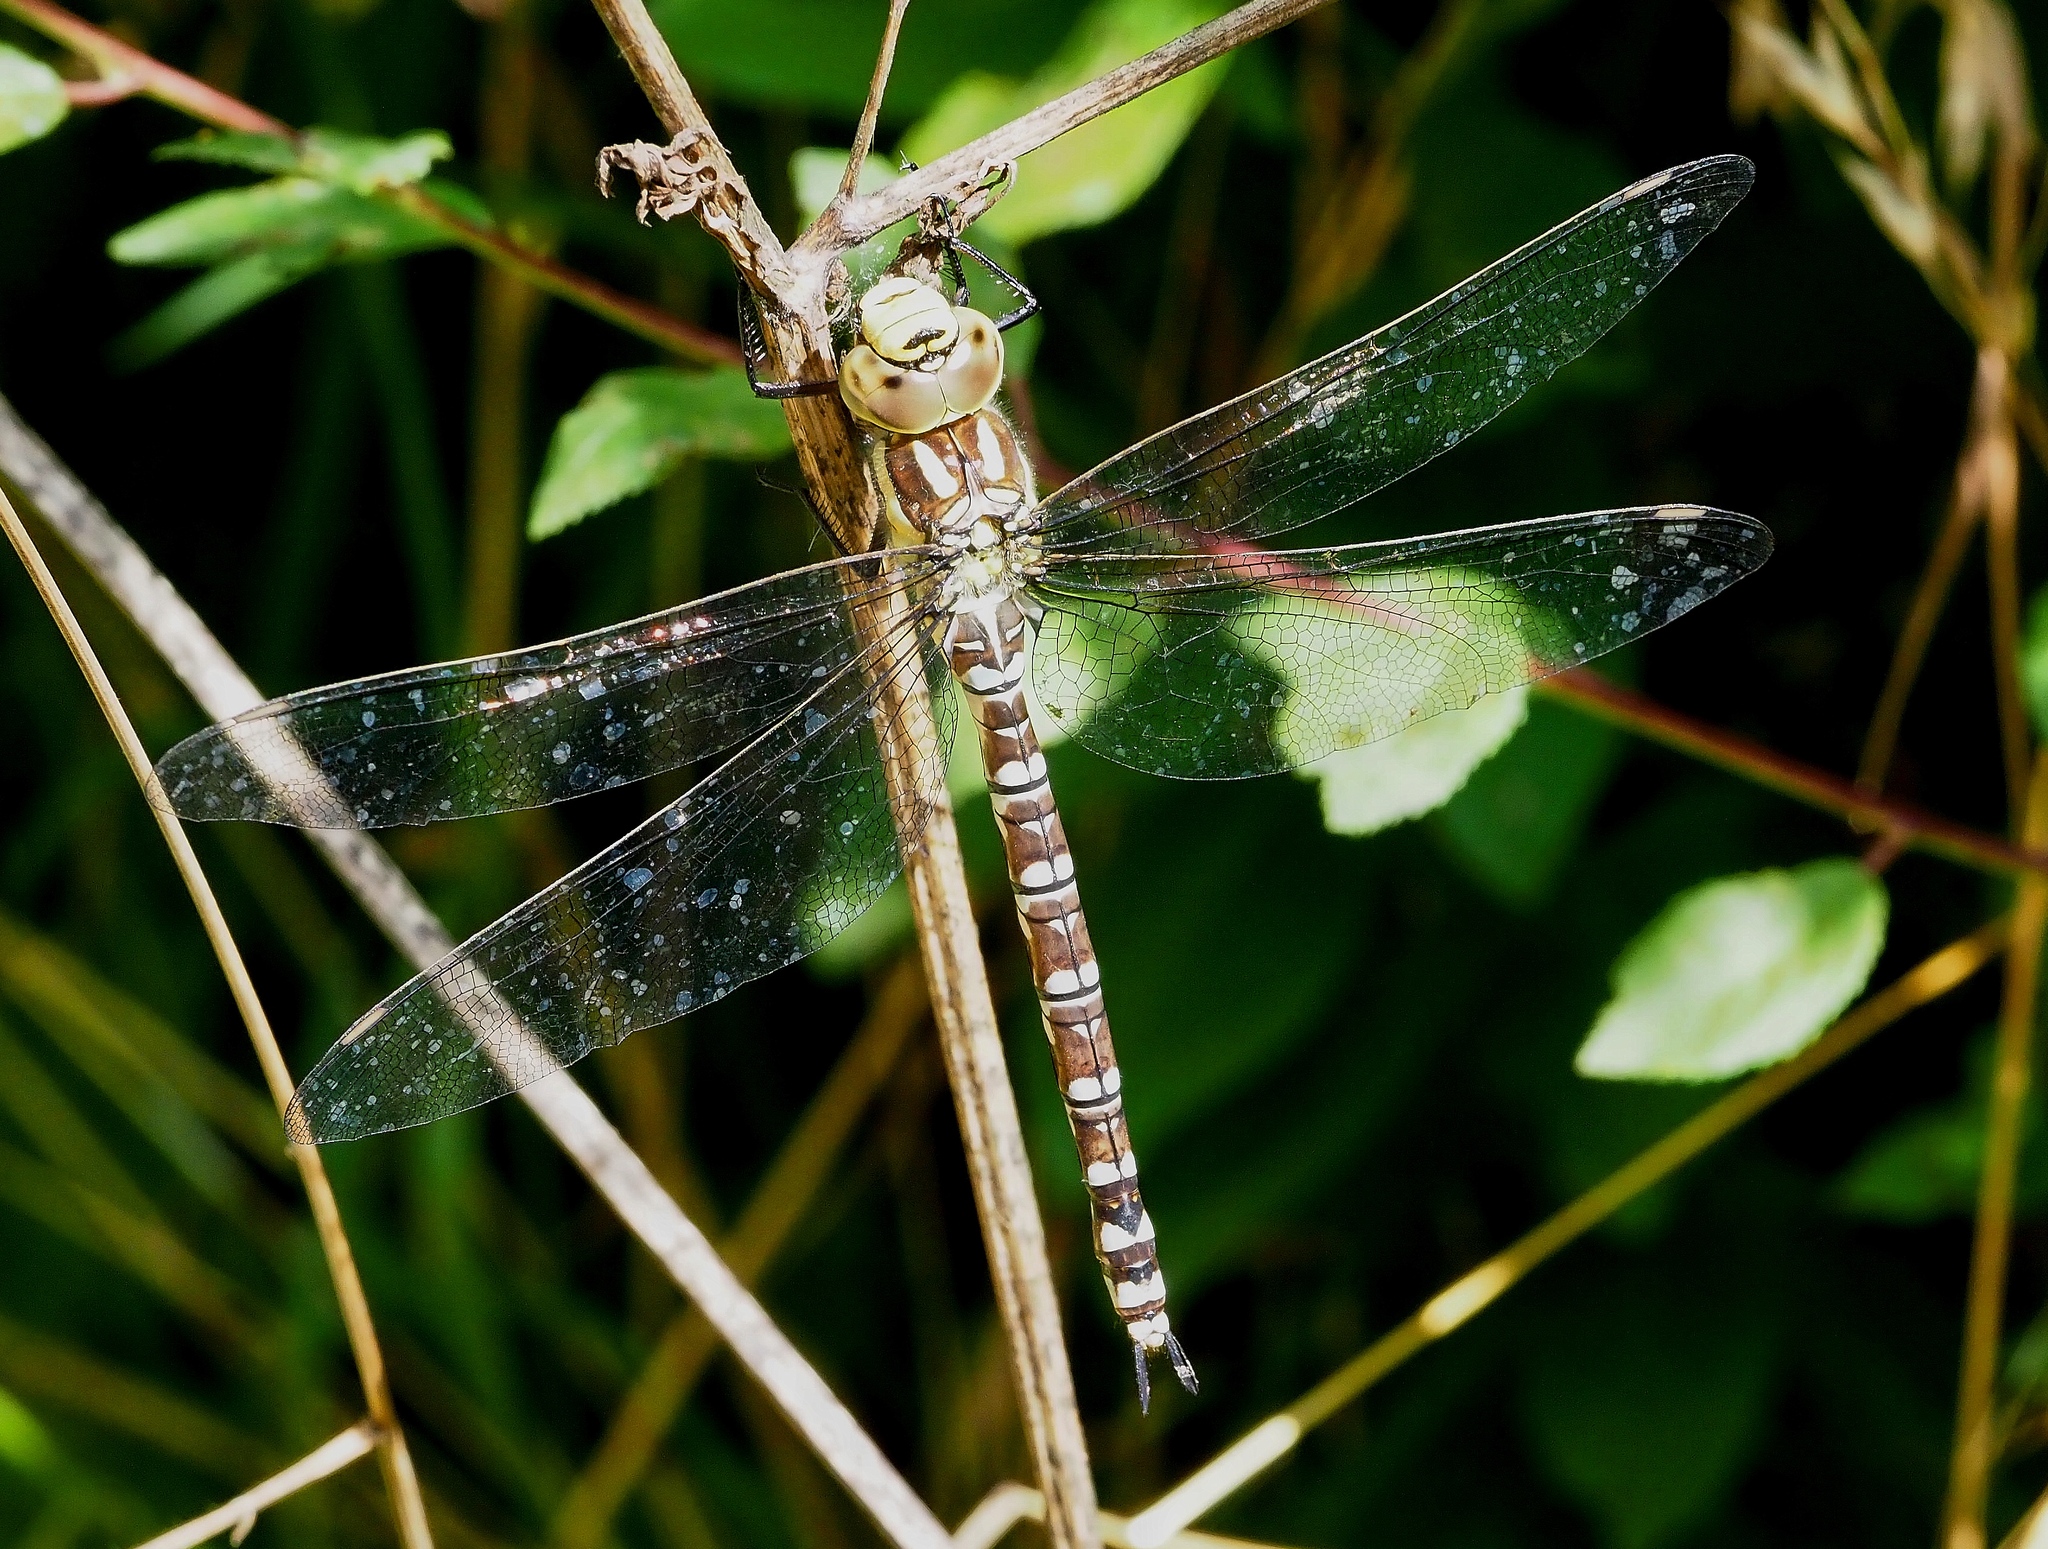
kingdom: Animalia
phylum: Arthropoda
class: Insecta
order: Odonata
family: Aeshnidae
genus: Aeshna
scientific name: Aeshna cyanea
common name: Southern hawker
